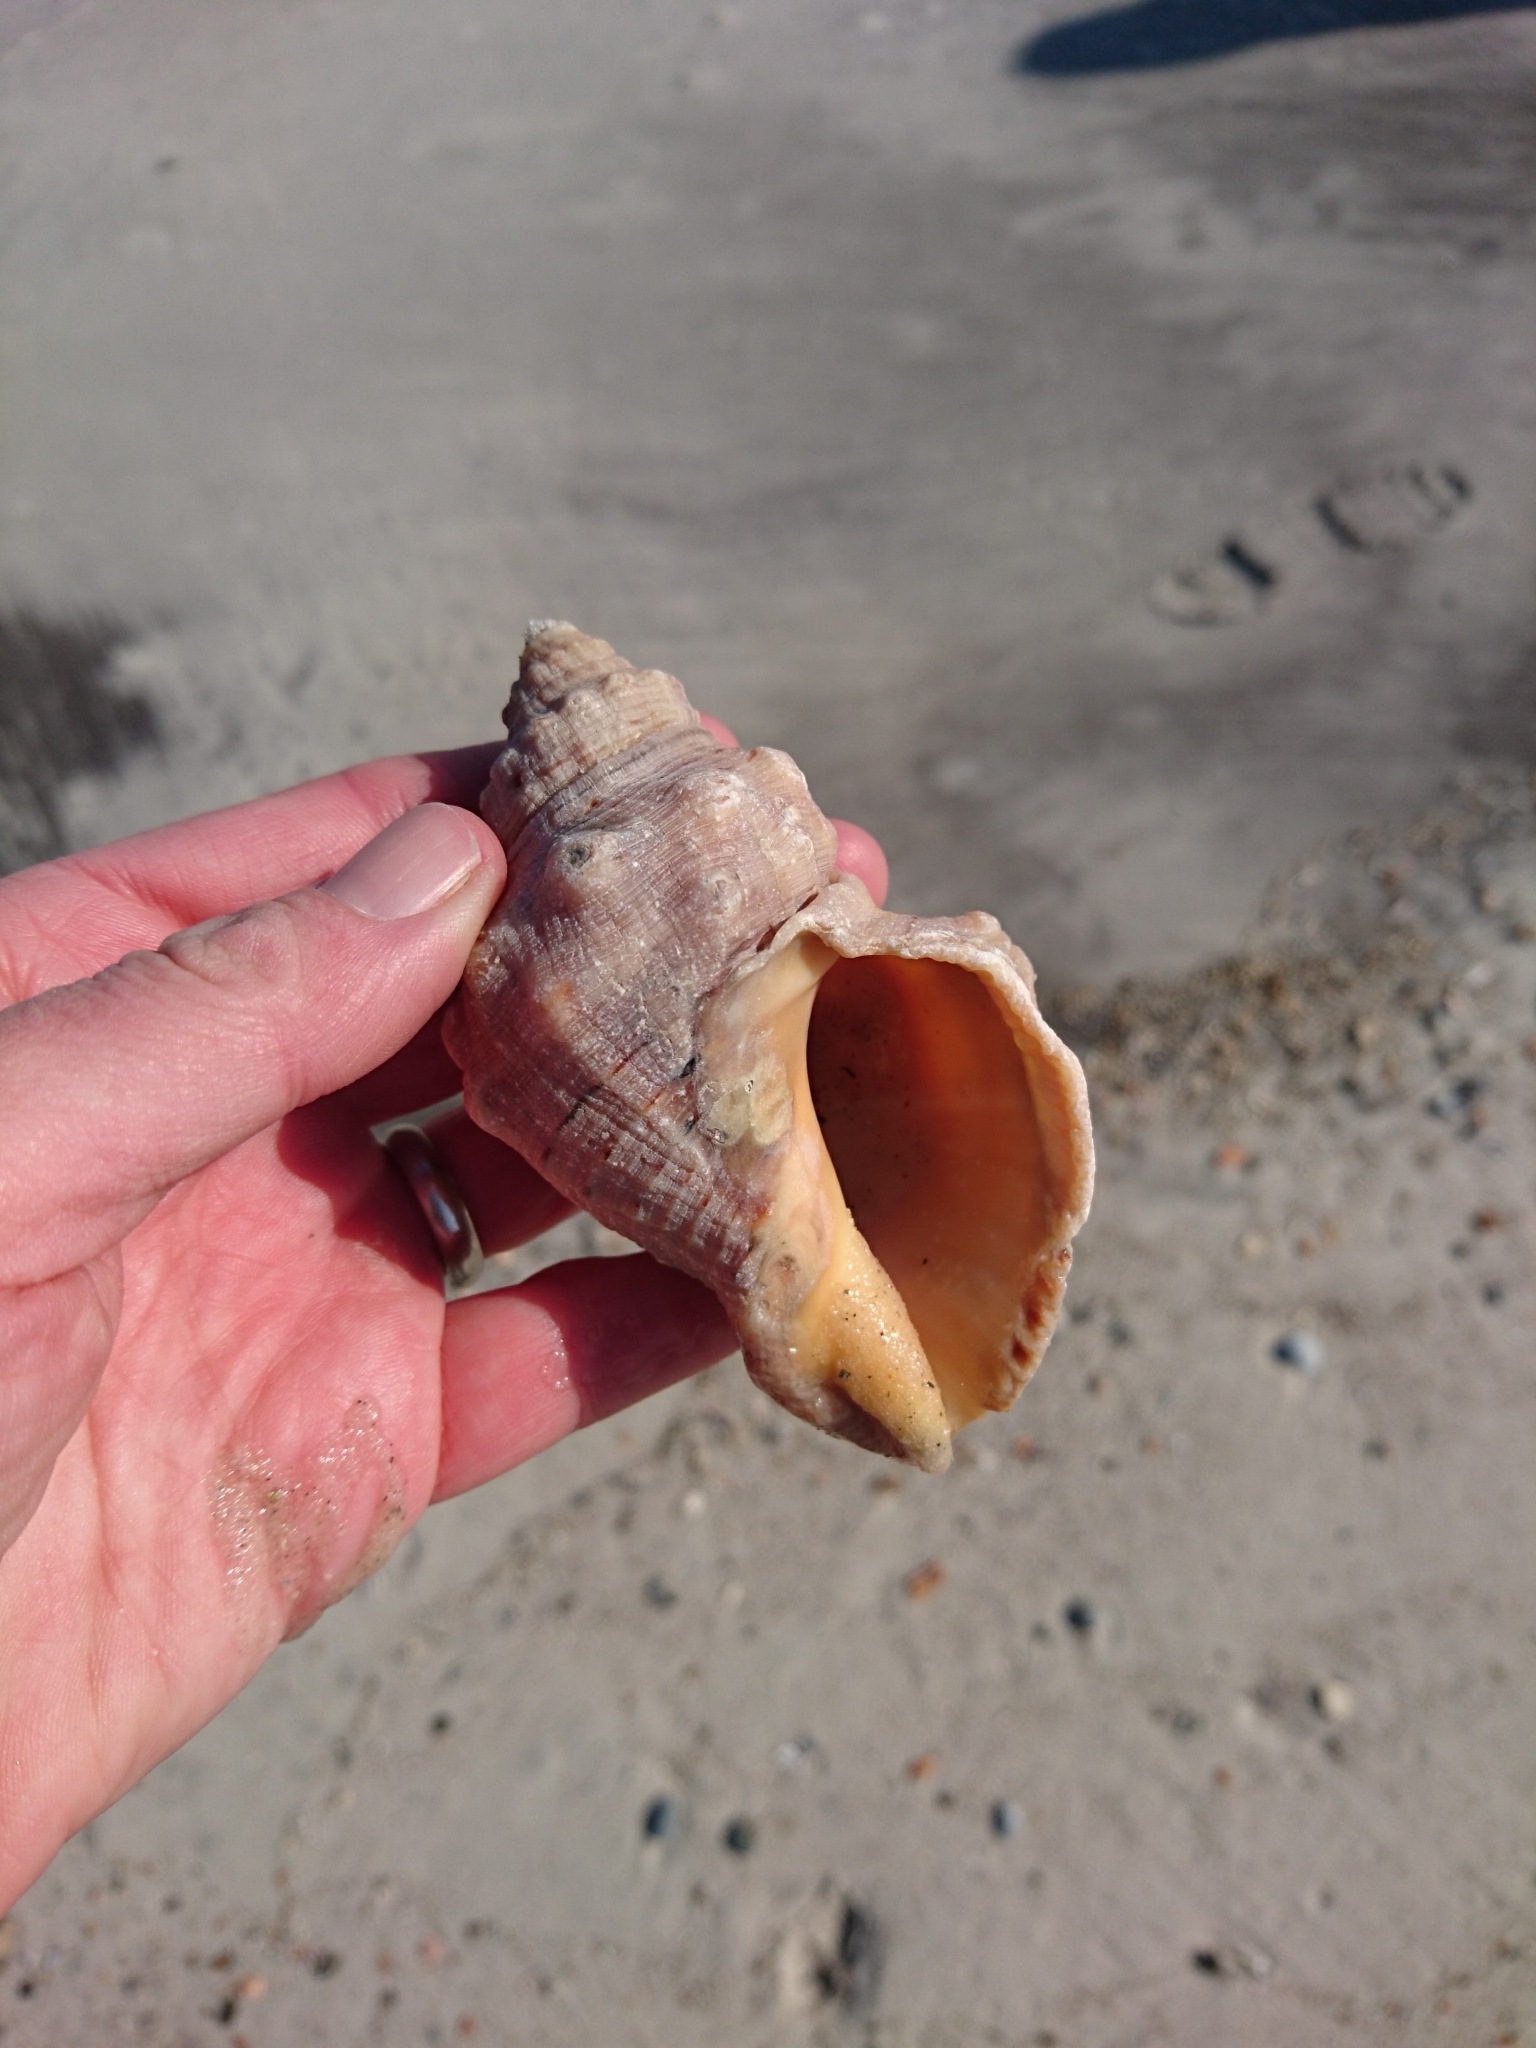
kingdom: Animalia
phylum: Mollusca
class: Gastropoda
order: Neogastropoda
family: Muricidae
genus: Stramonita
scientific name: Stramonita canaliculata
